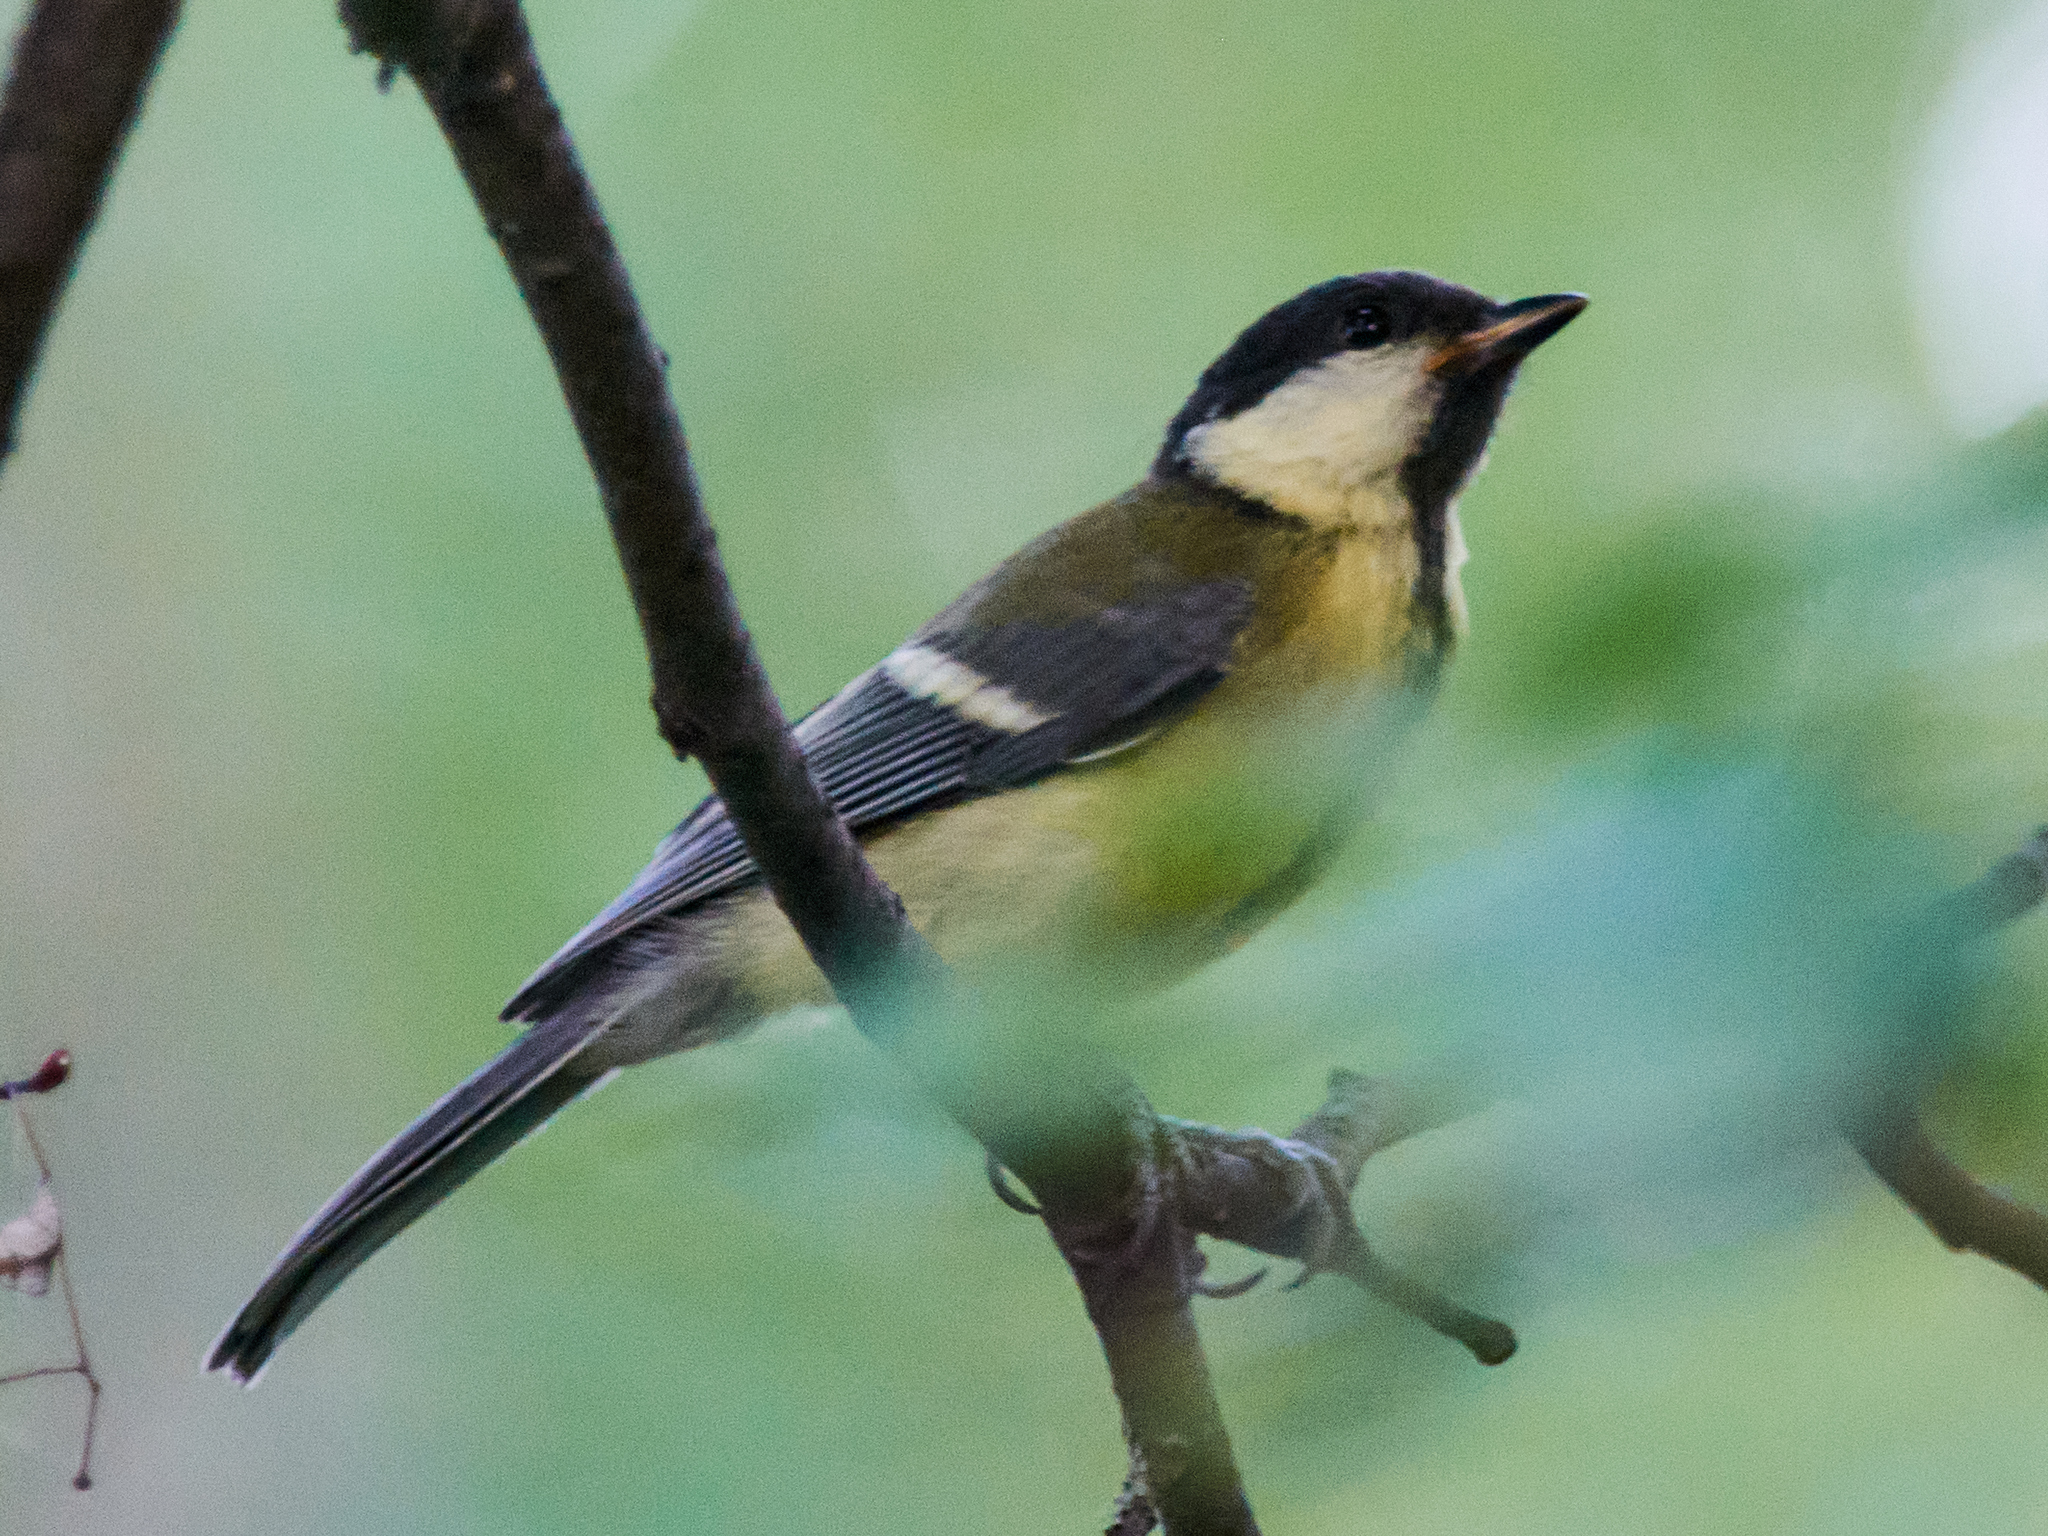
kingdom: Animalia
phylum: Chordata
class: Aves
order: Passeriformes
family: Paridae
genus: Parus
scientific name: Parus major
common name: Great tit
